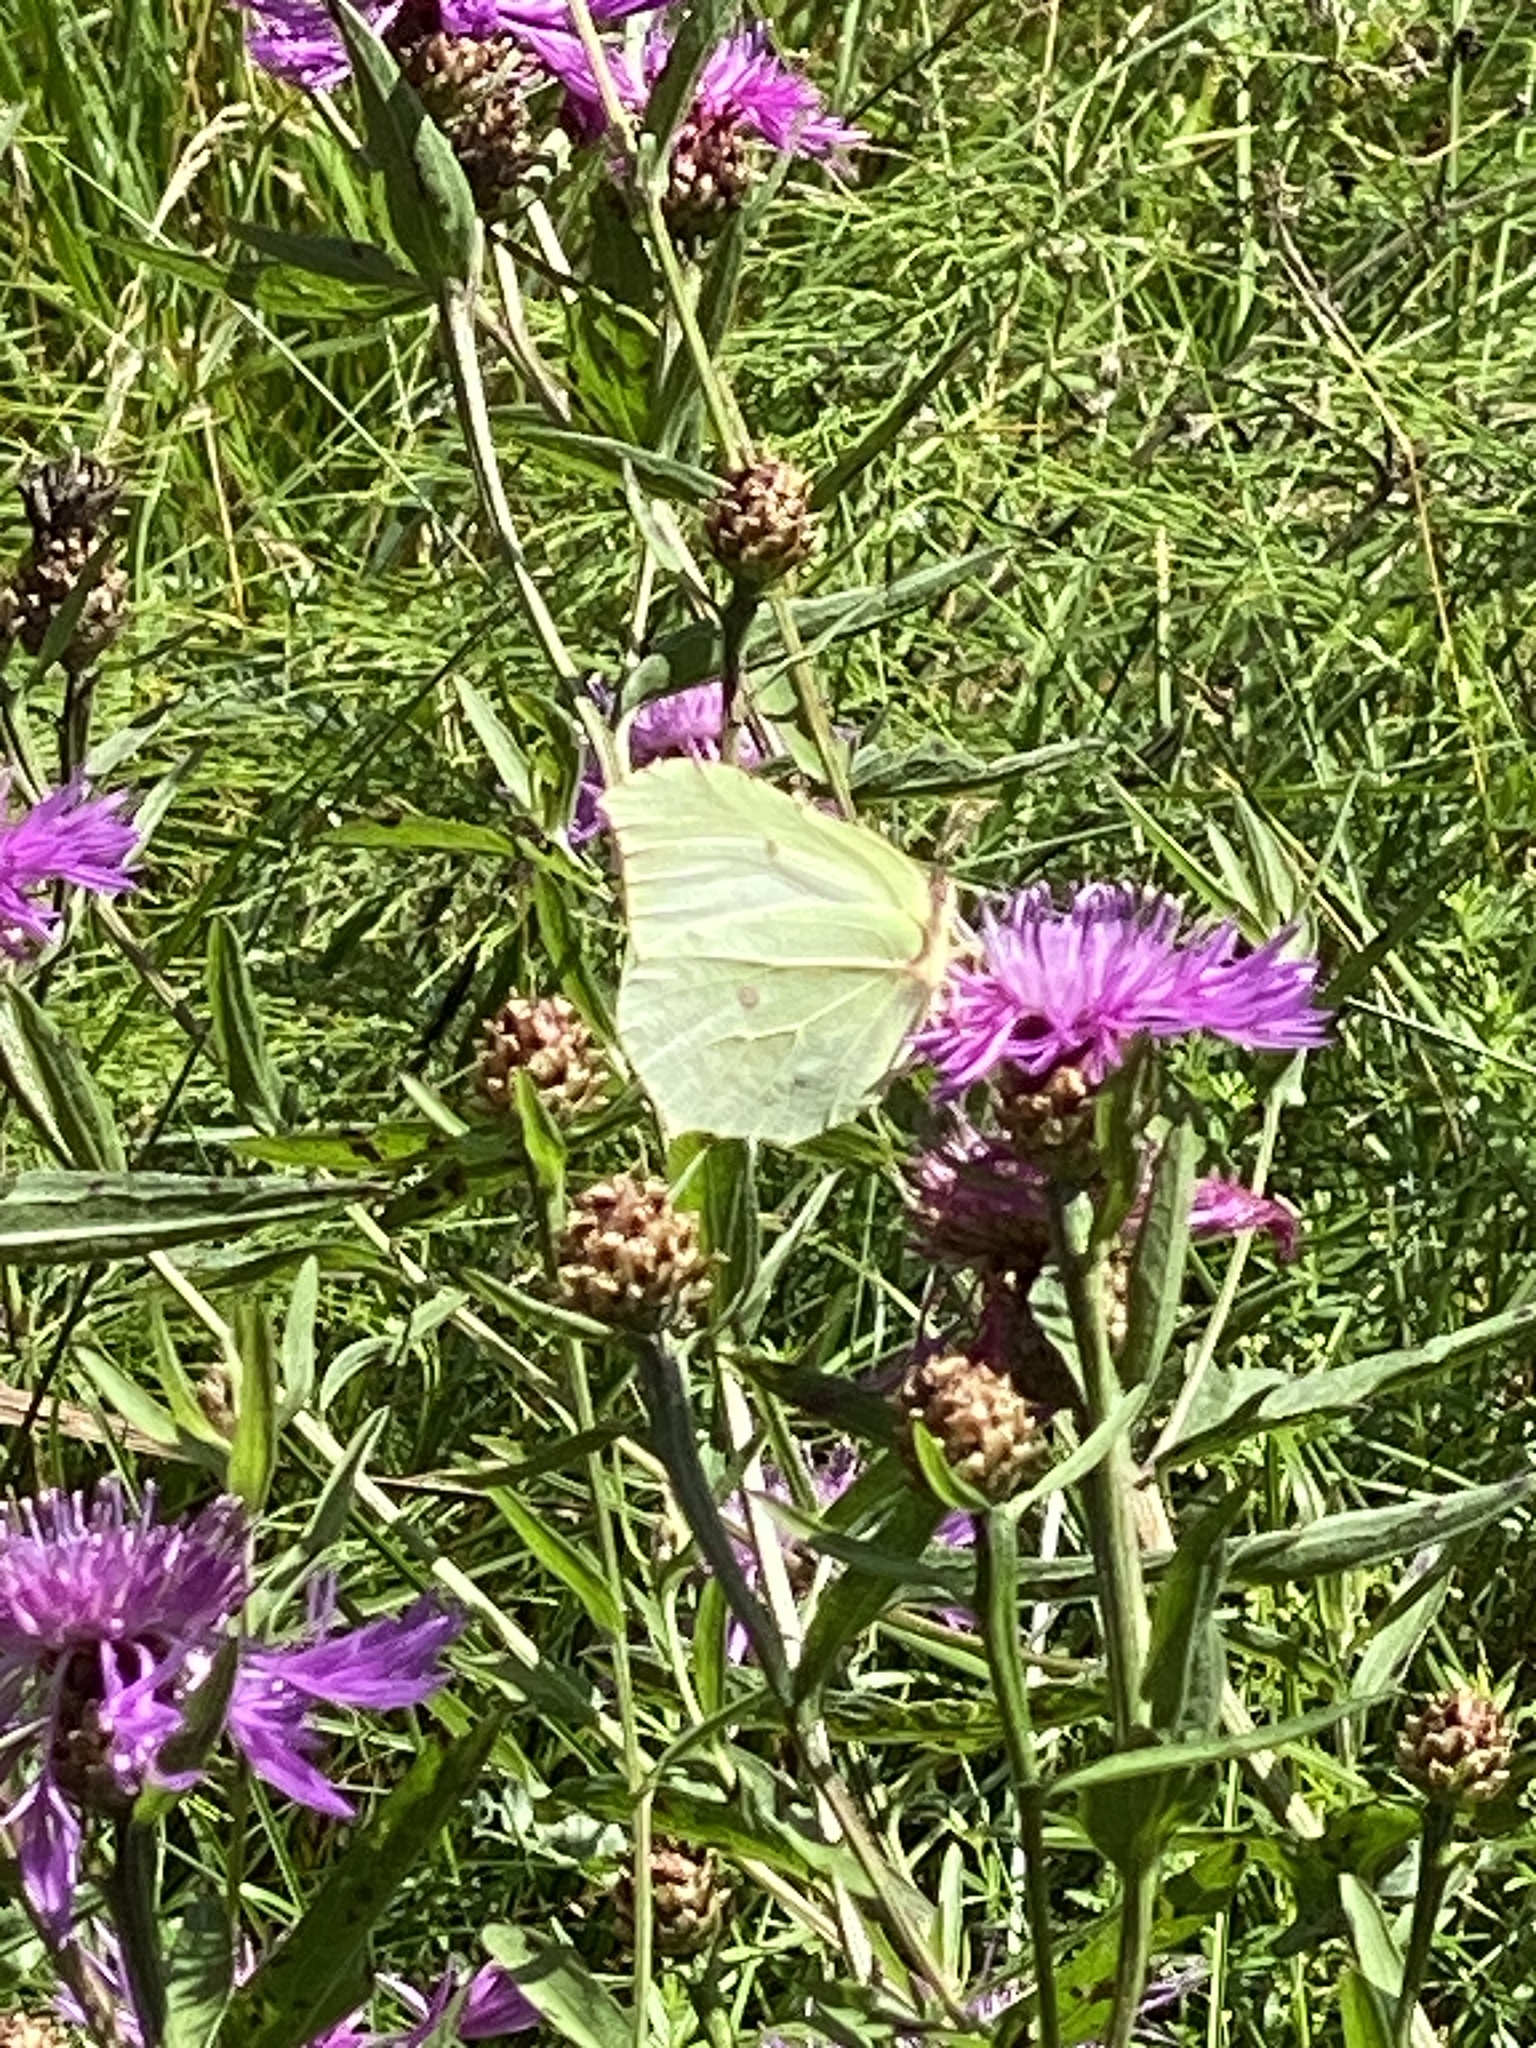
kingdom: Animalia
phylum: Arthropoda
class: Insecta
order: Lepidoptera
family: Pieridae
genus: Gonepteryx
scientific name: Gonepteryx rhamni
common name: Brimstone
